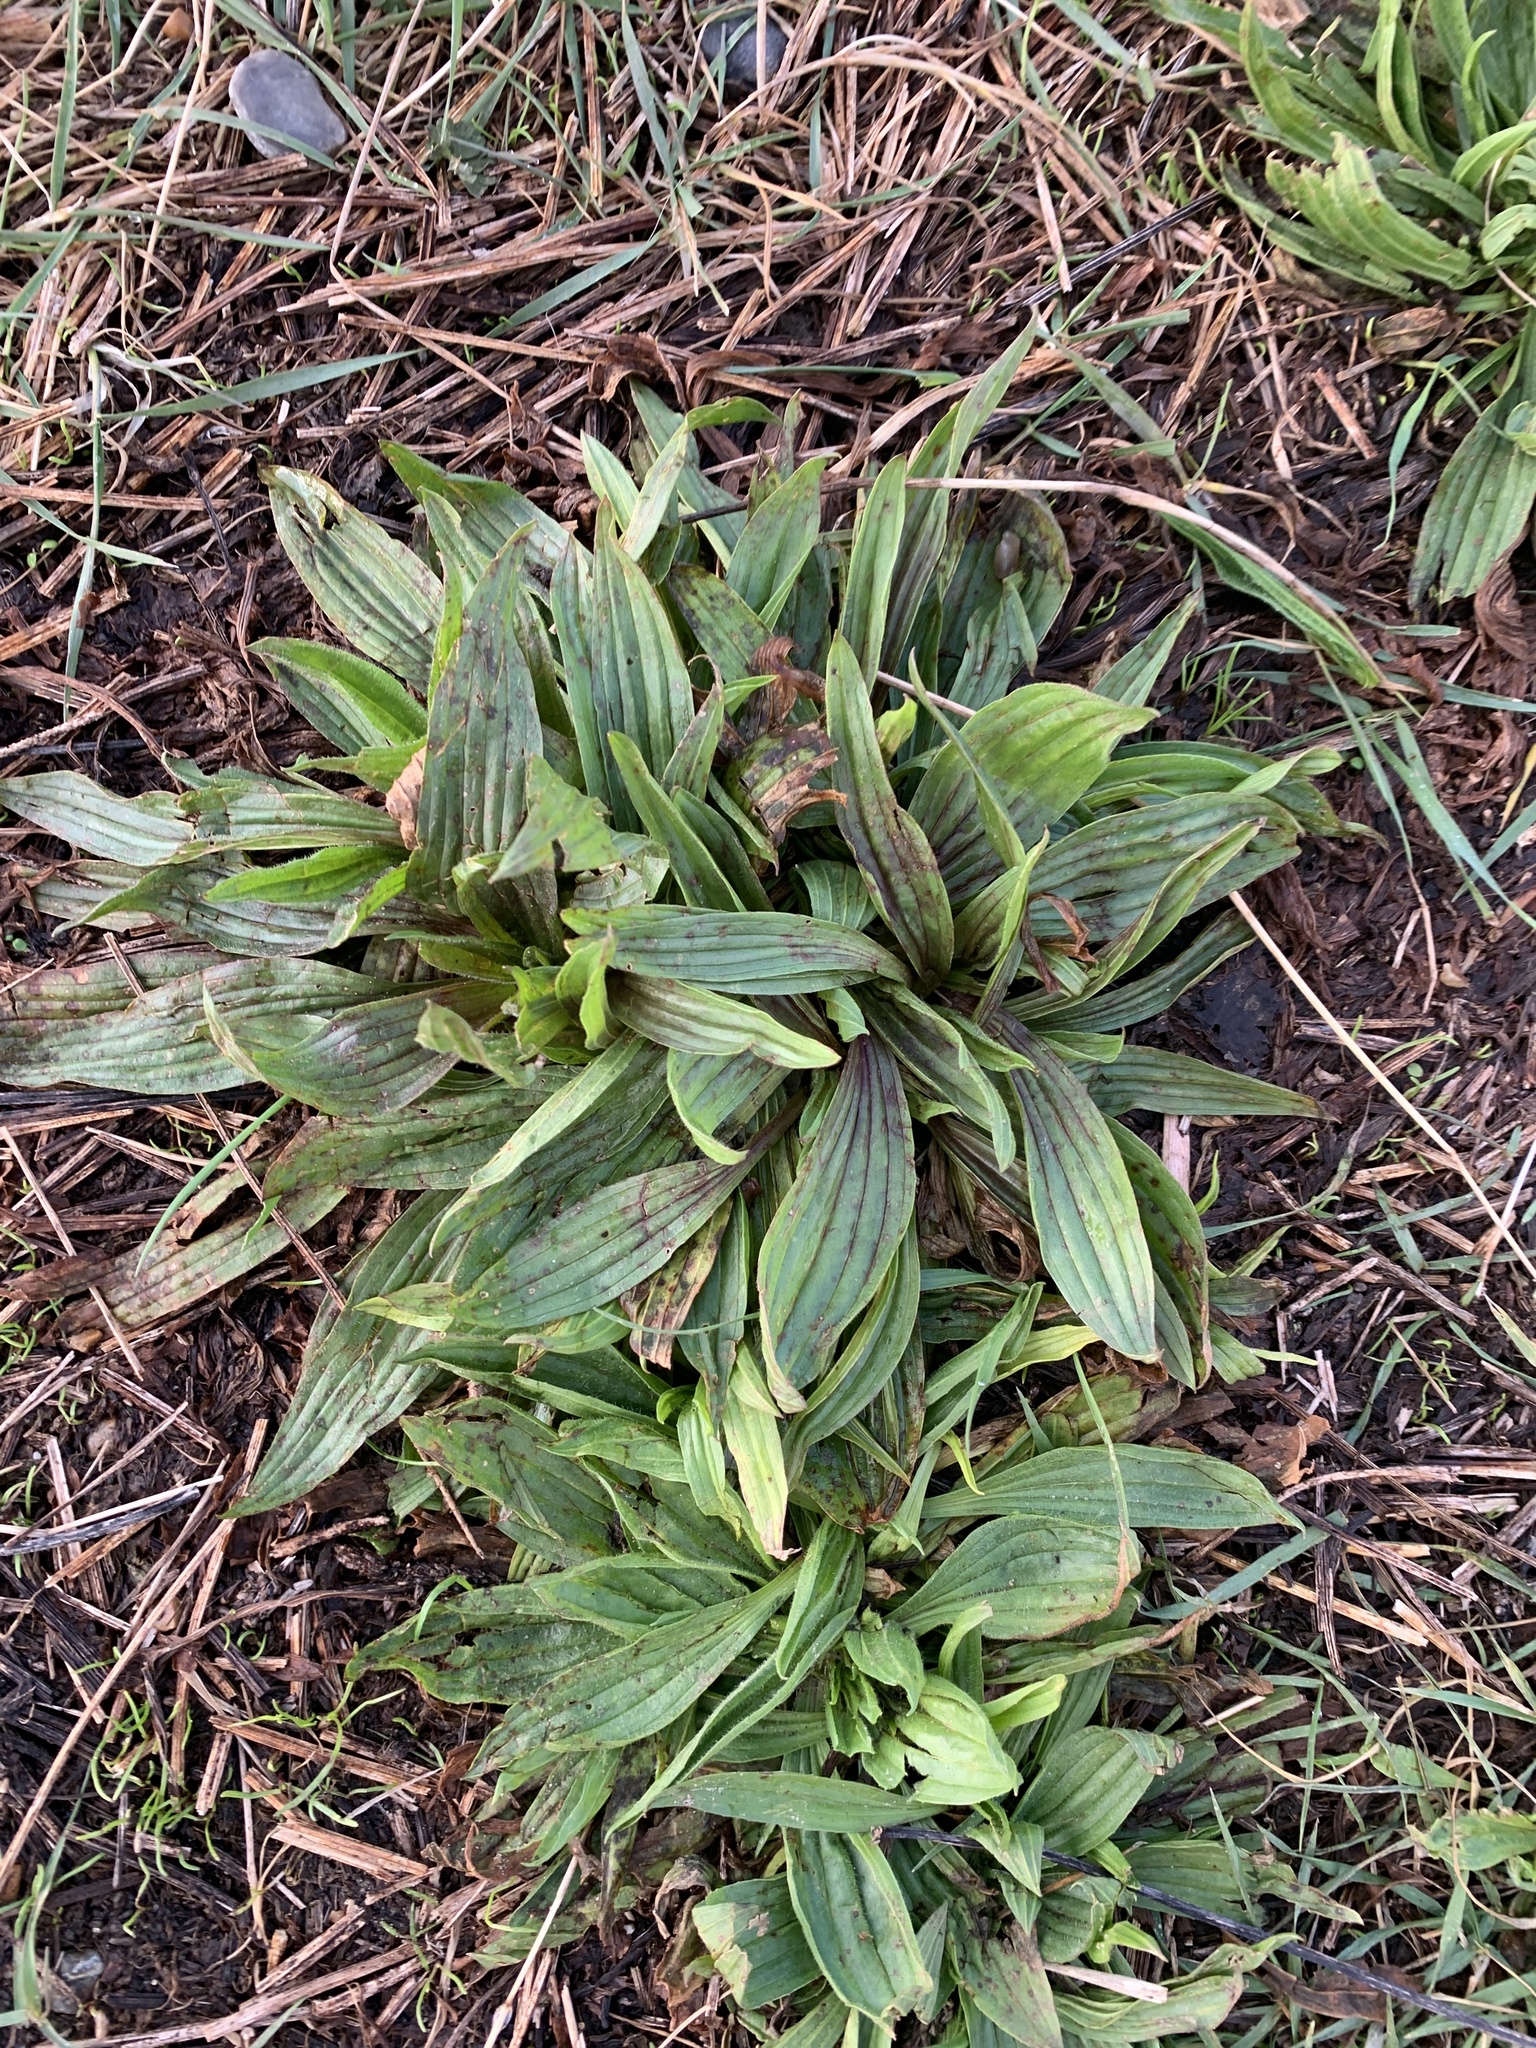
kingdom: Plantae
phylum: Tracheophyta
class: Magnoliopsida
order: Lamiales
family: Plantaginaceae
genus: Plantago
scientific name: Plantago lanceolata
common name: Ribwort plantain
